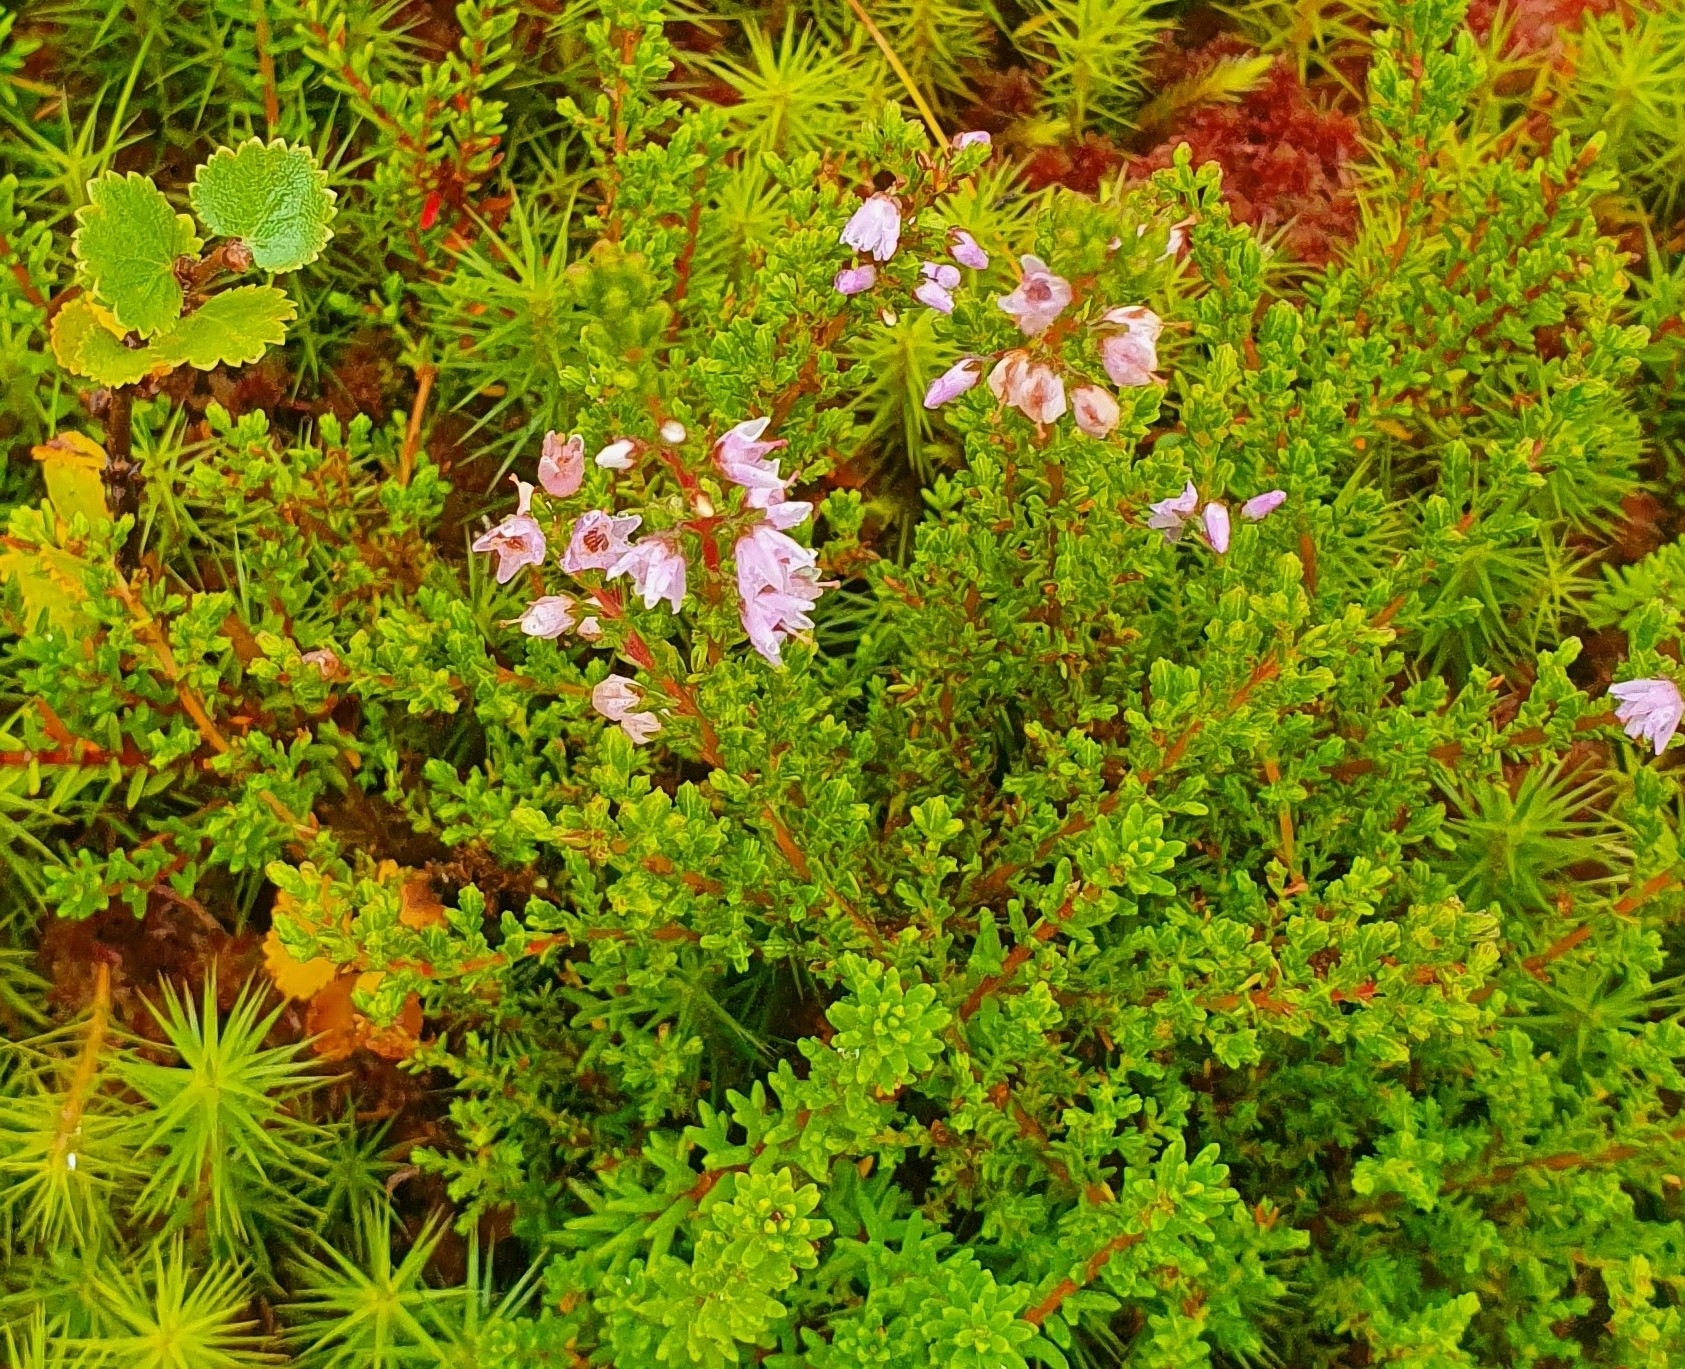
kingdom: Plantae
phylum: Tracheophyta
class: Magnoliopsida
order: Ericales
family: Ericaceae
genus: Calluna
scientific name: Calluna vulgaris
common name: Heather
